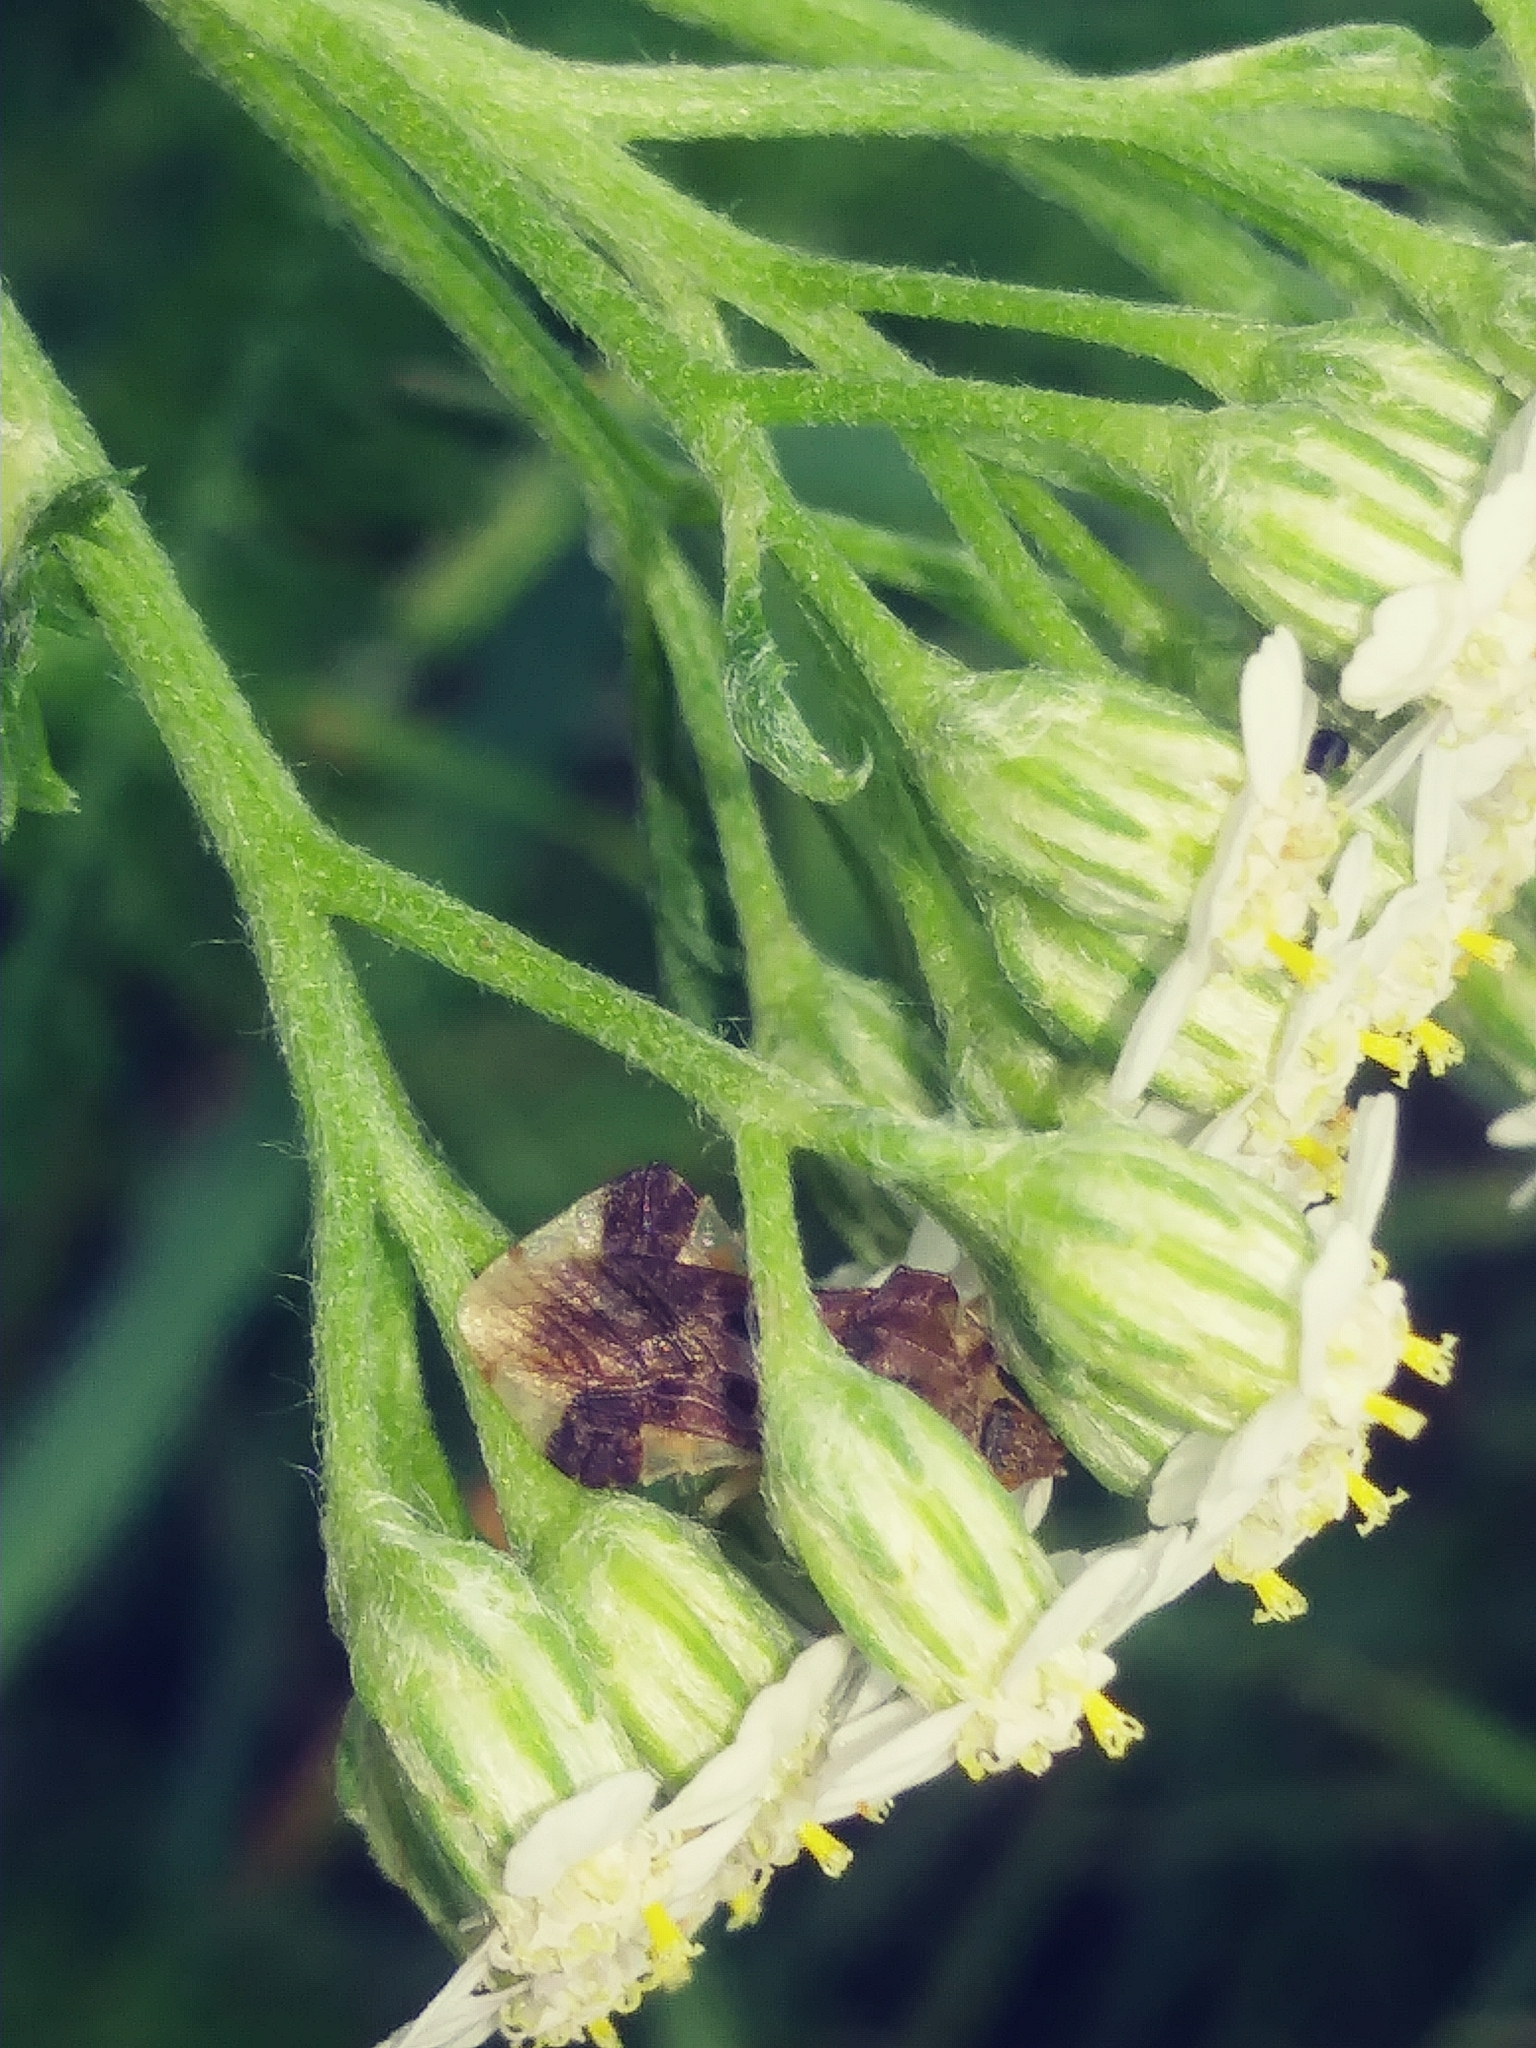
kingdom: Animalia
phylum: Arthropoda
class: Insecta
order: Hemiptera
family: Reduviidae
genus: Phymata
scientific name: Phymata fasciata
